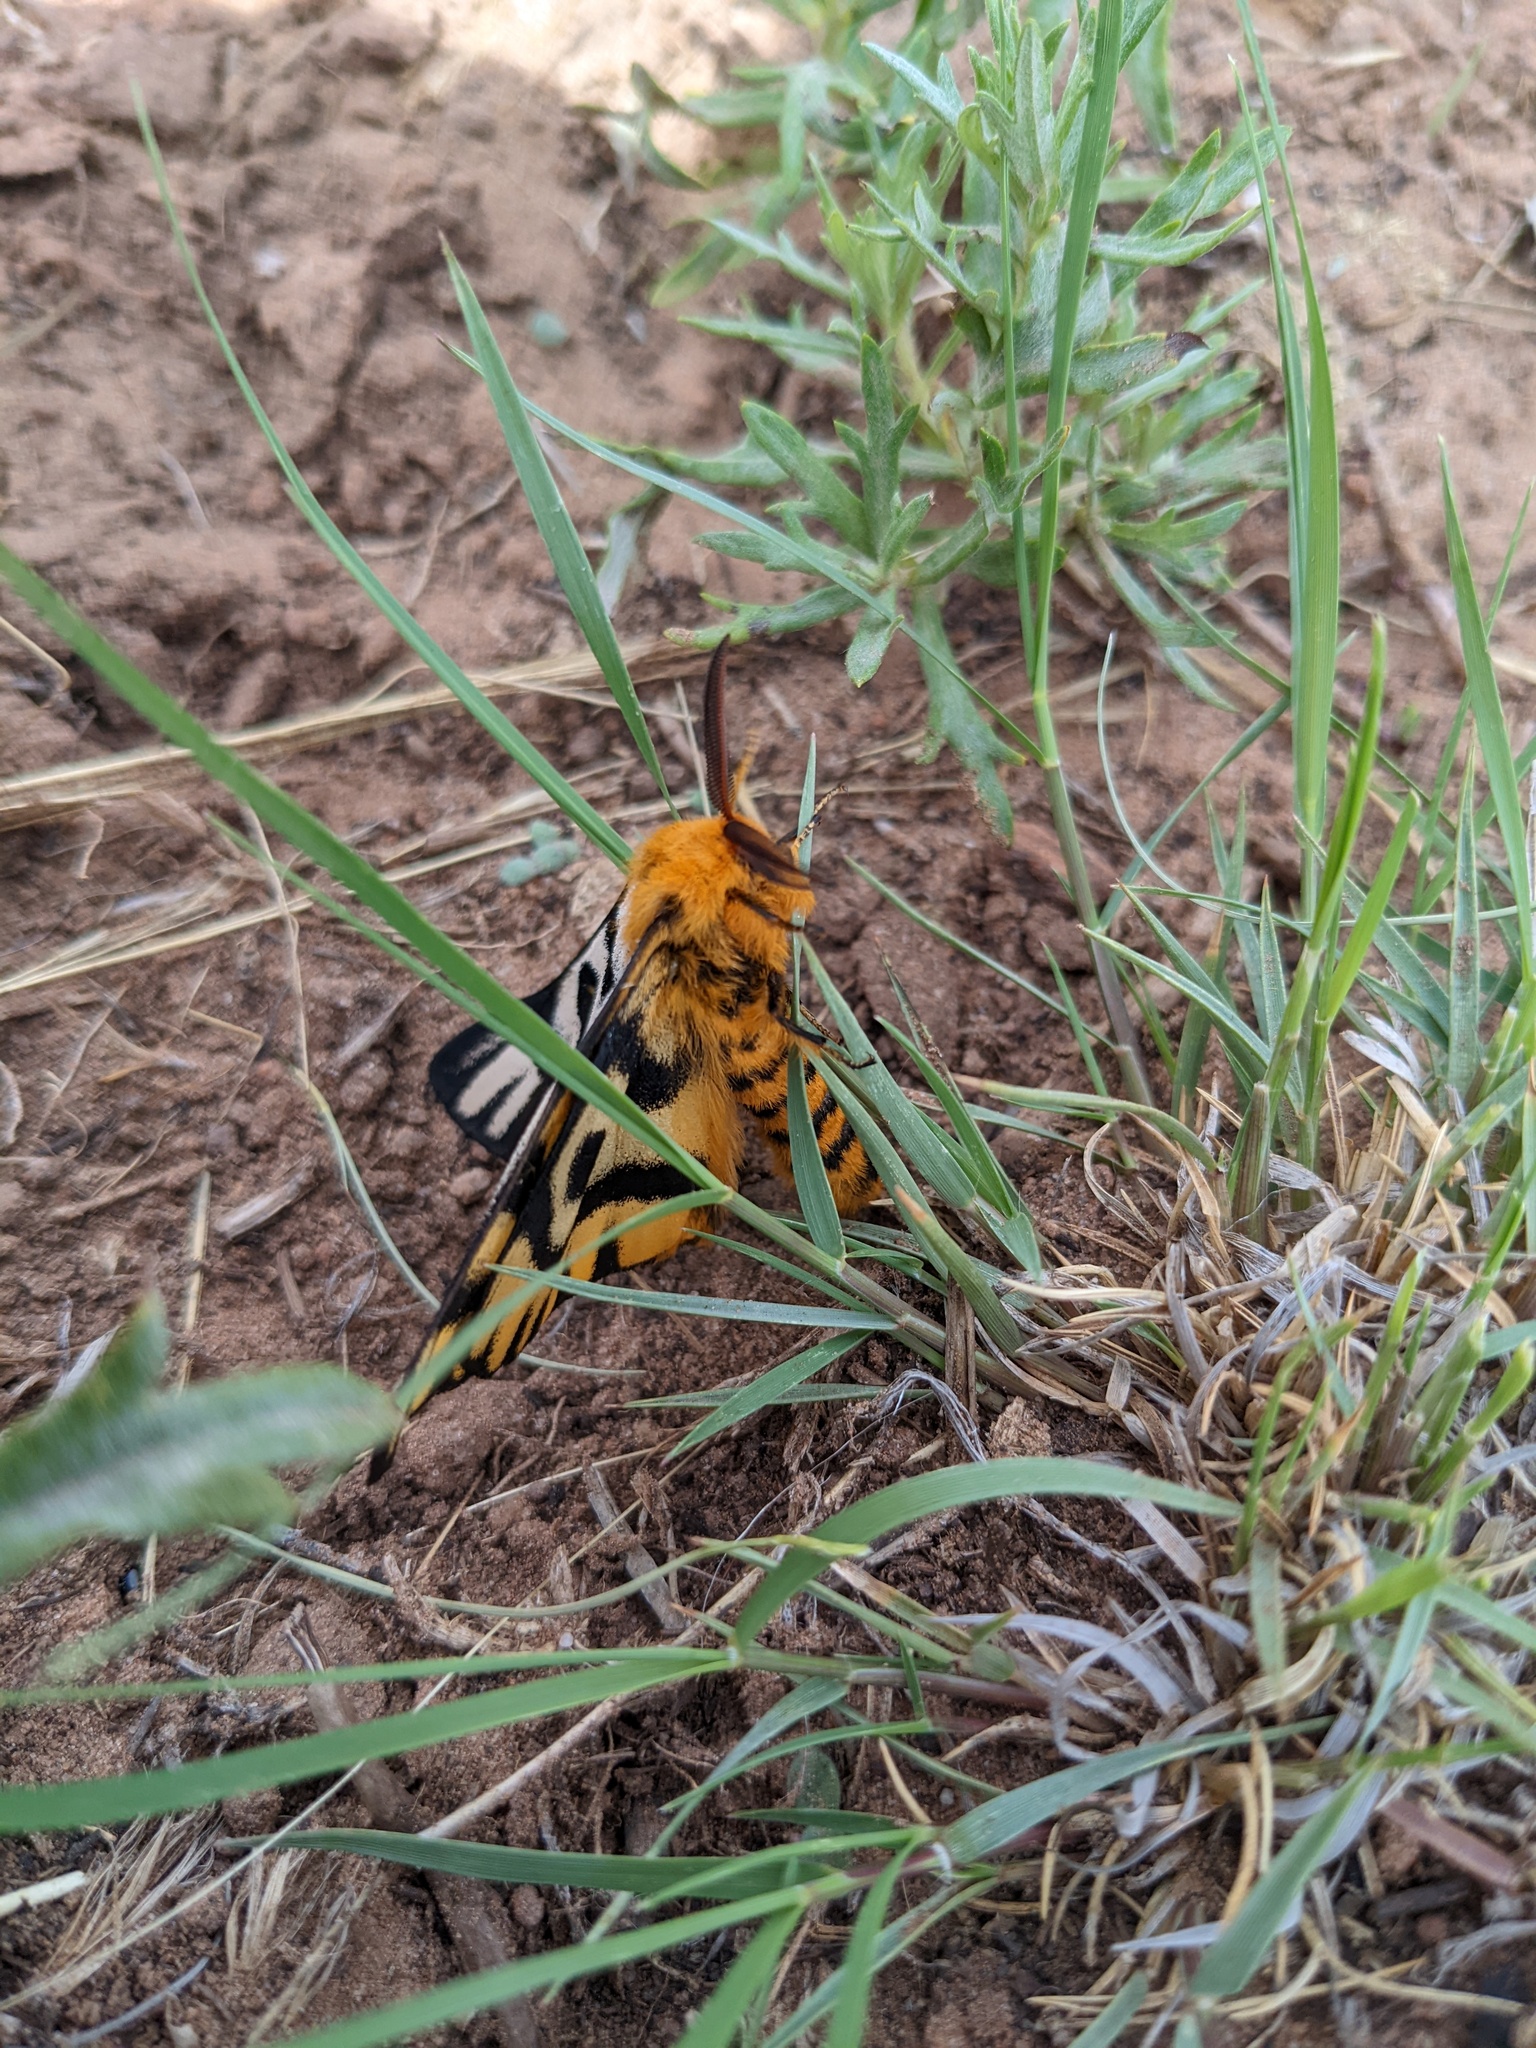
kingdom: Animalia
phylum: Arthropoda
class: Insecta
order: Lepidoptera
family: Saturniidae
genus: Hemileuca
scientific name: Hemileuca nutalli
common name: Nuttall's sheepmoth
